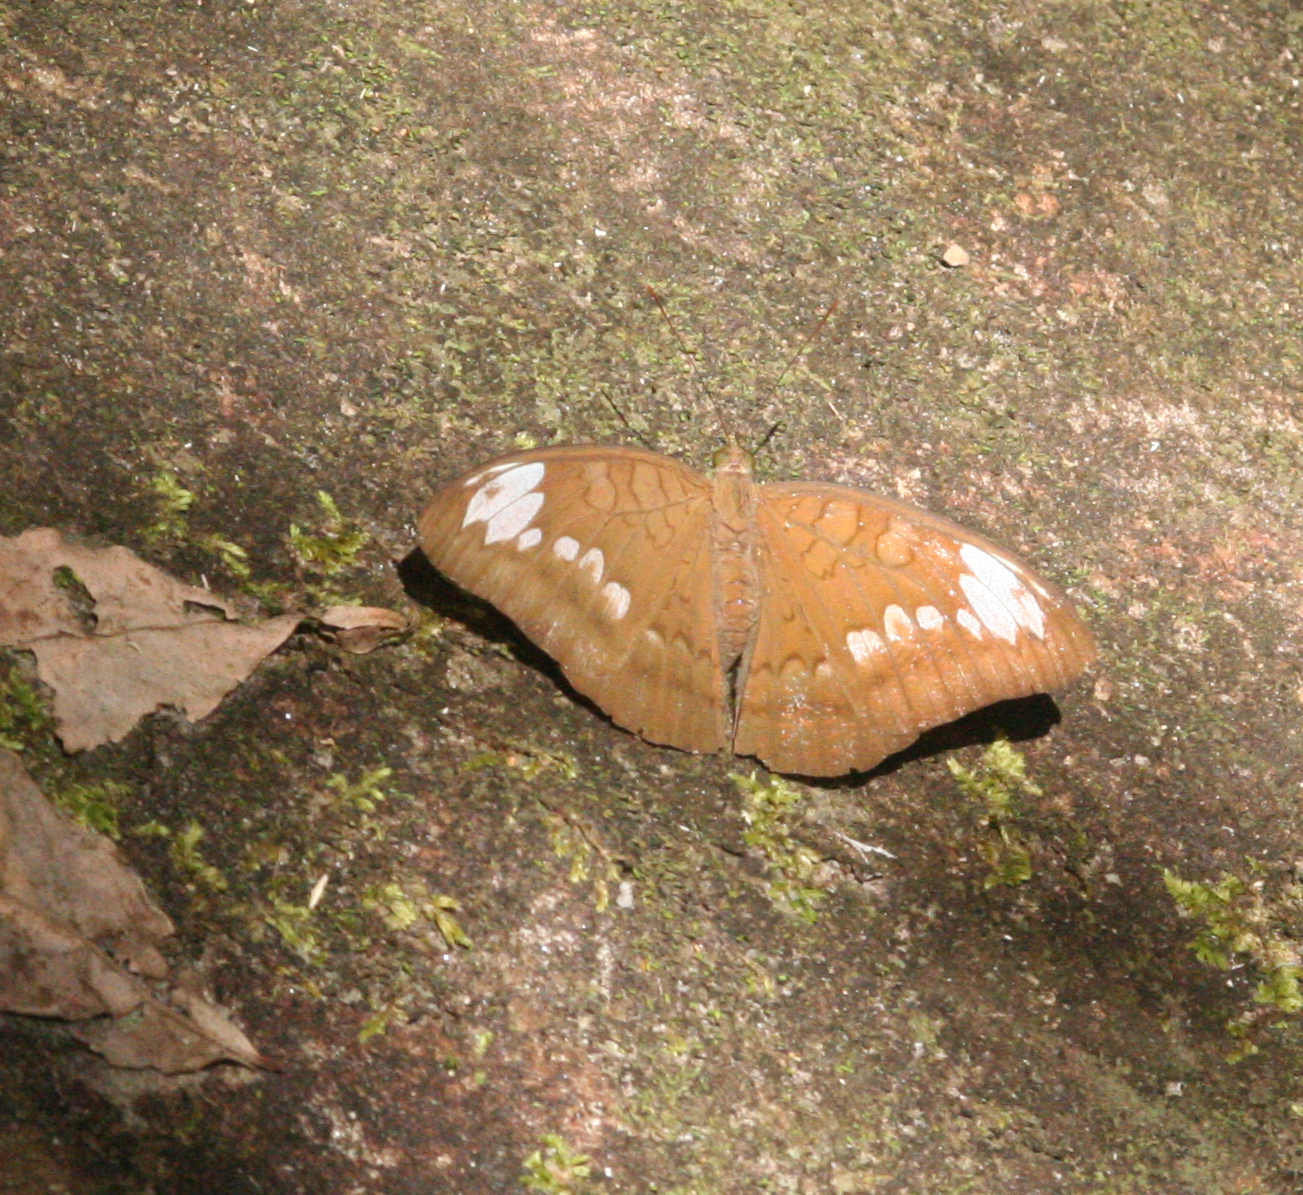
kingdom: Animalia
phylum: Arthropoda
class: Insecta
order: Lepidoptera
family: Nymphalidae
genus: Tanaecia
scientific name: Tanaecia julii
